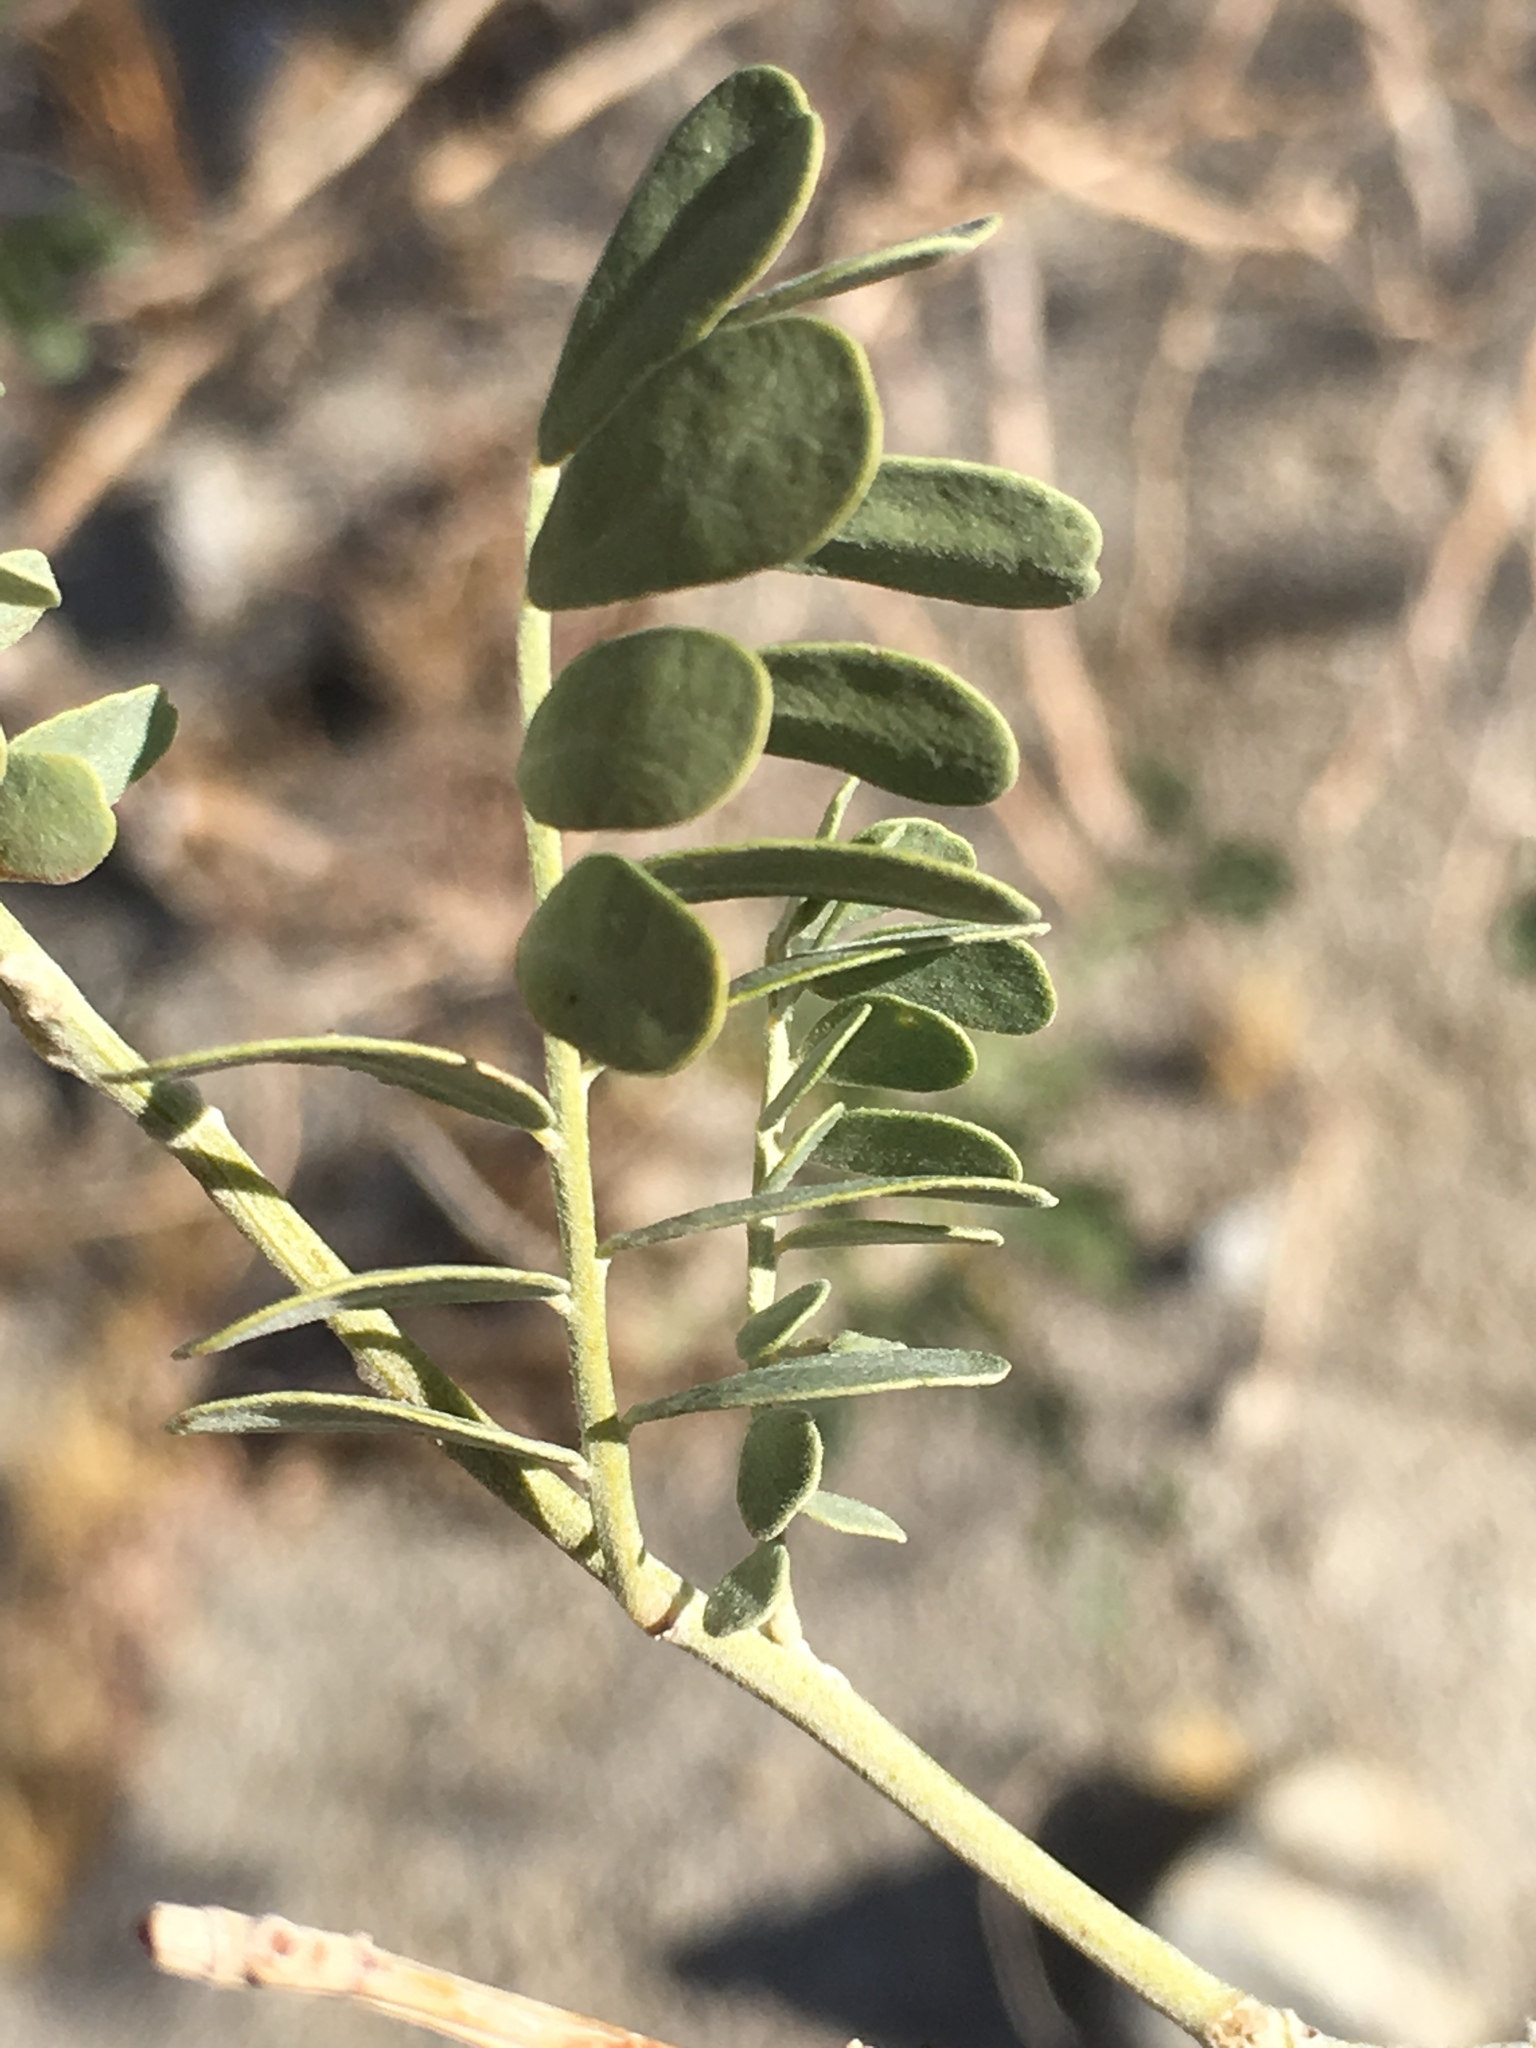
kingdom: Plantae
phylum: Tracheophyta
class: Magnoliopsida
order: Fabales
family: Fabaceae
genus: Olneya
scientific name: Olneya tesota
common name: Desert ironwood
